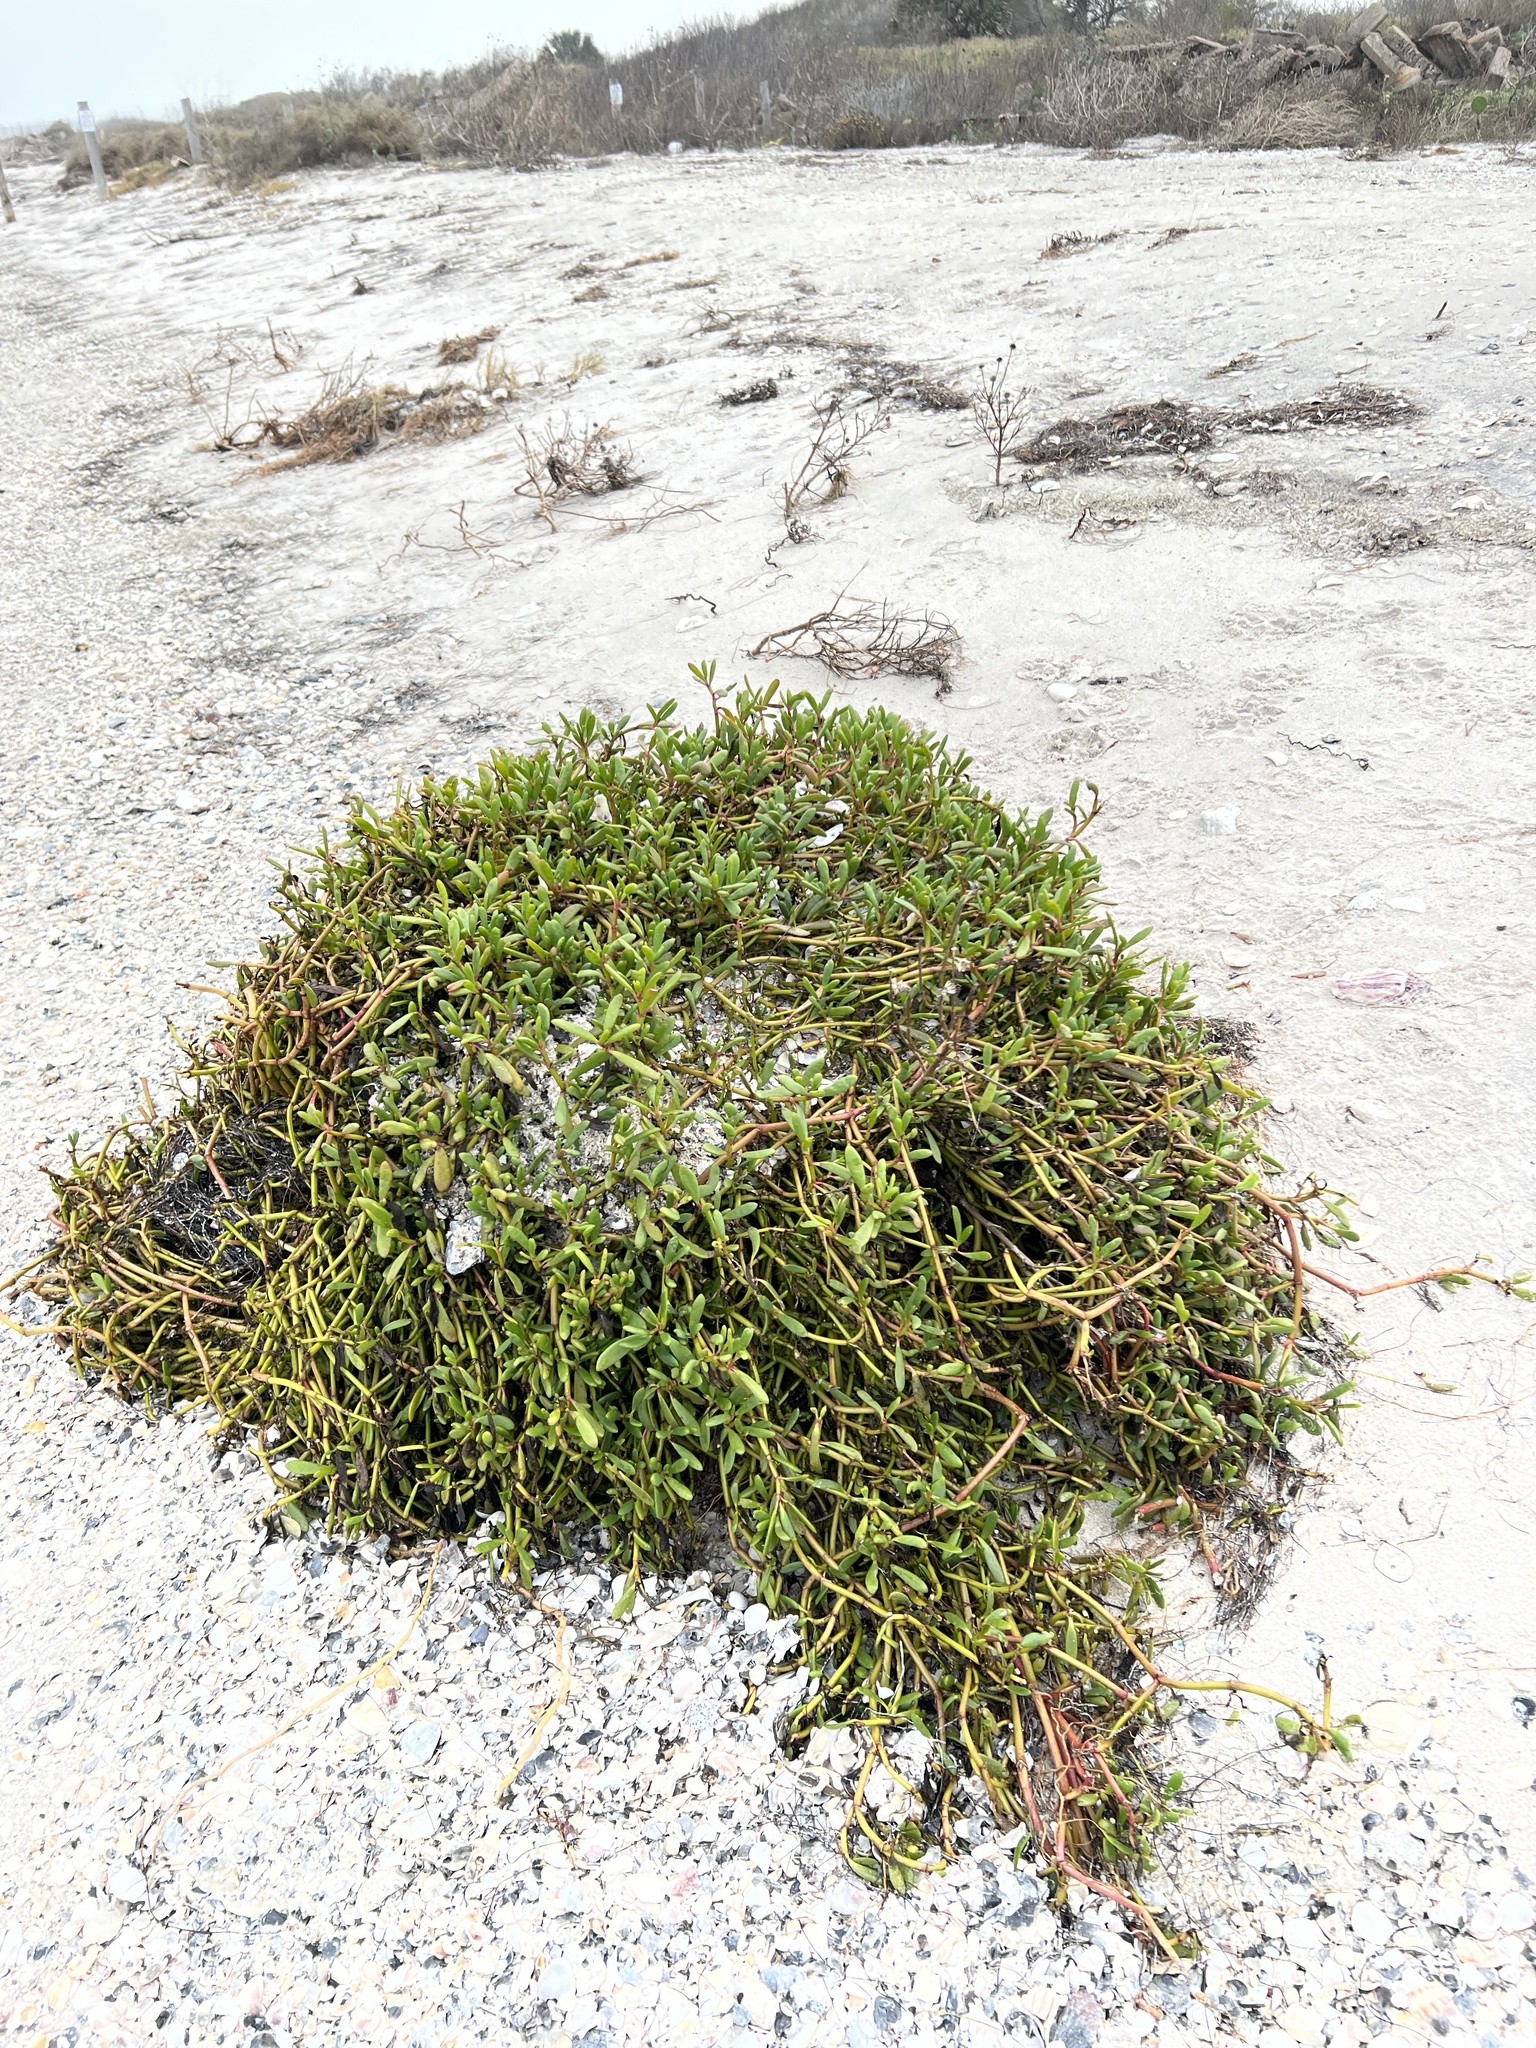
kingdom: Plantae
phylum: Tracheophyta
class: Magnoliopsida
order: Caryophyllales
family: Aizoaceae
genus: Sesuvium
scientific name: Sesuvium portulacastrum
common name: Sea-purslane
